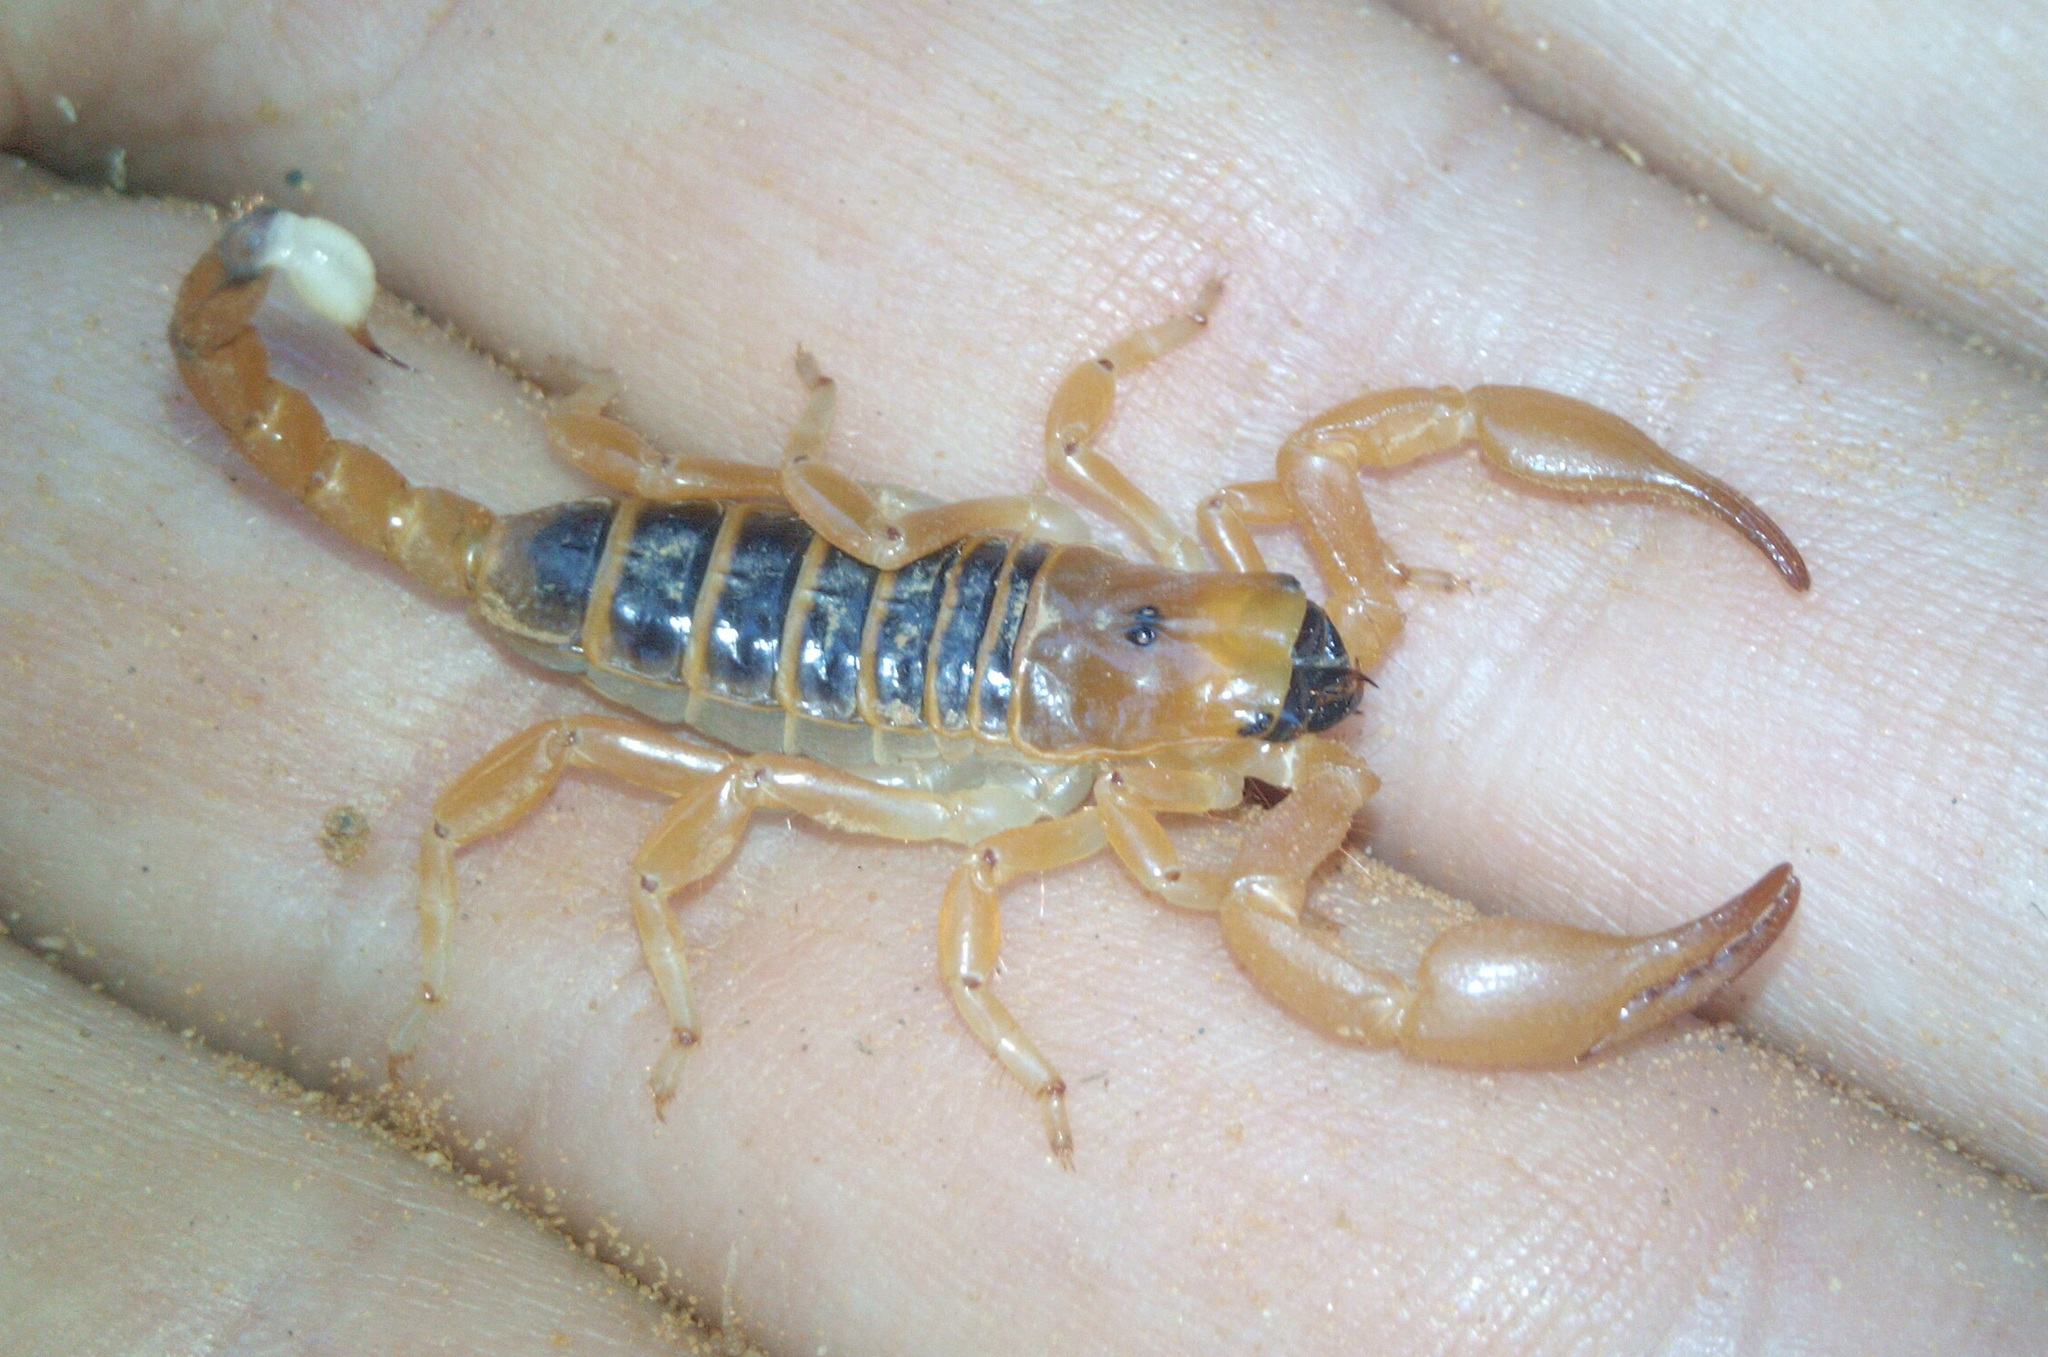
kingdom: Animalia
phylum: Arthropoda
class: Arachnida
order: Scorpiones
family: Scorpionidae
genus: Opistophthalmus
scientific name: Opistophthalmus wahlbergii
